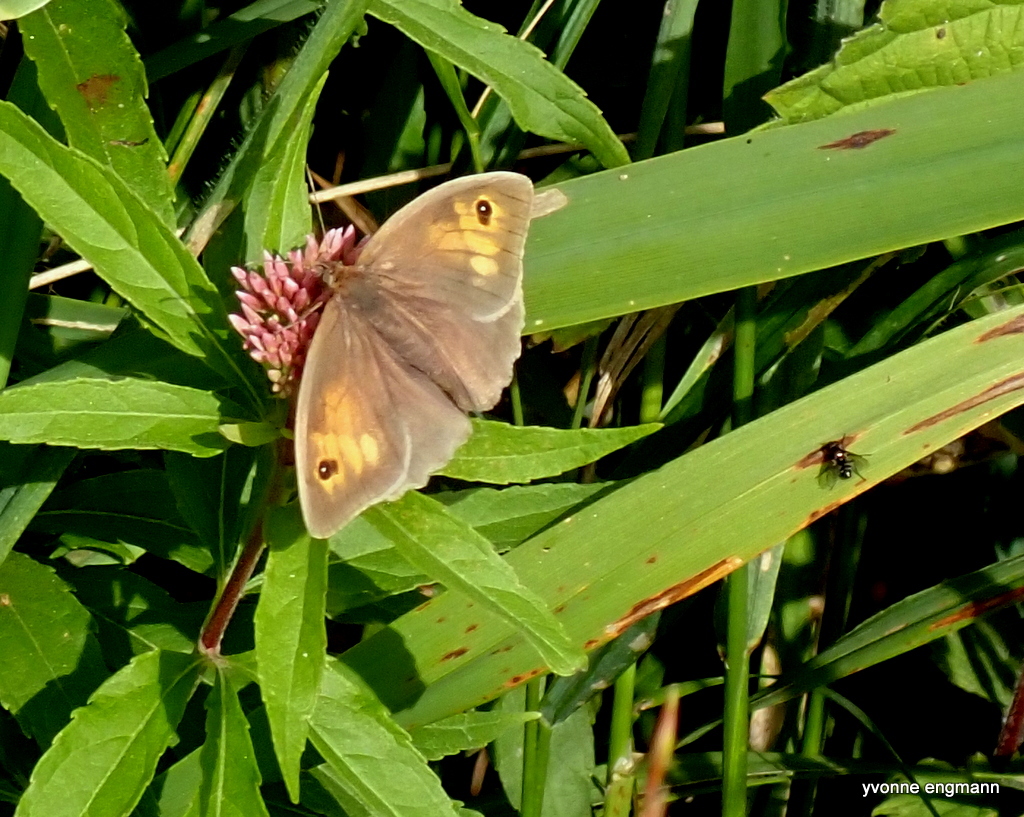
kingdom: Animalia
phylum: Arthropoda
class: Insecta
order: Lepidoptera
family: Nymphalidae
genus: Maniola
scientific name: Maniola jurtina
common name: Meadow brown
